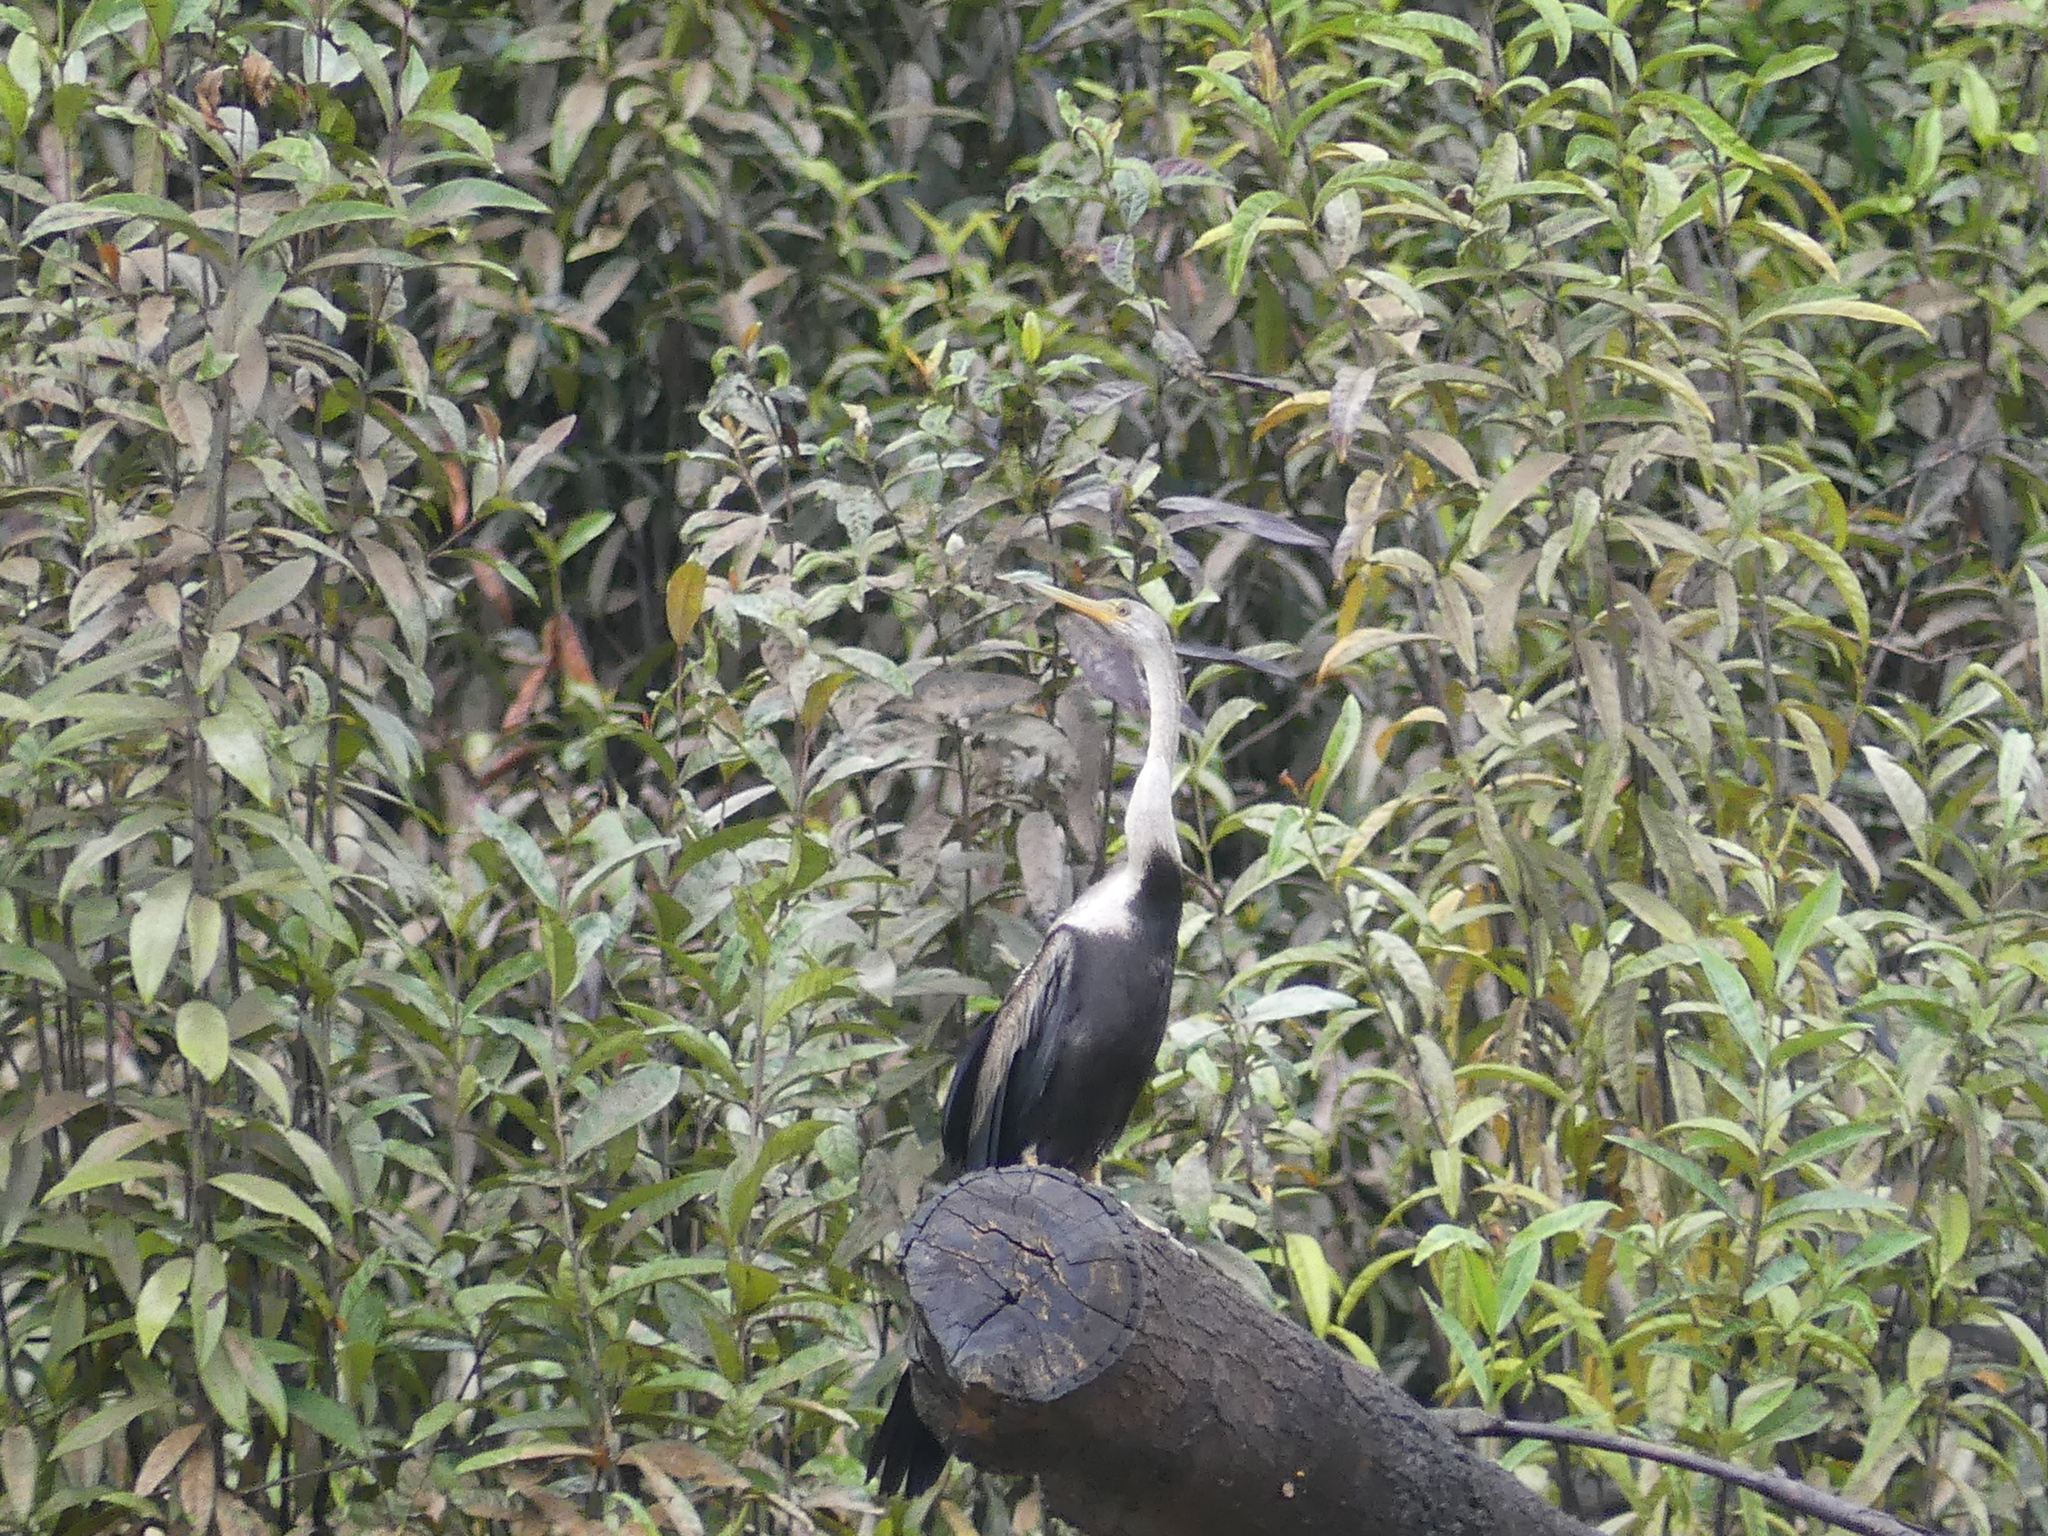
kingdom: Animalia
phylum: Chordata
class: Aves
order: Suliformes
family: Anhingidae
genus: Anhinga
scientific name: Anhinga melanogaster
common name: Oriental darter
